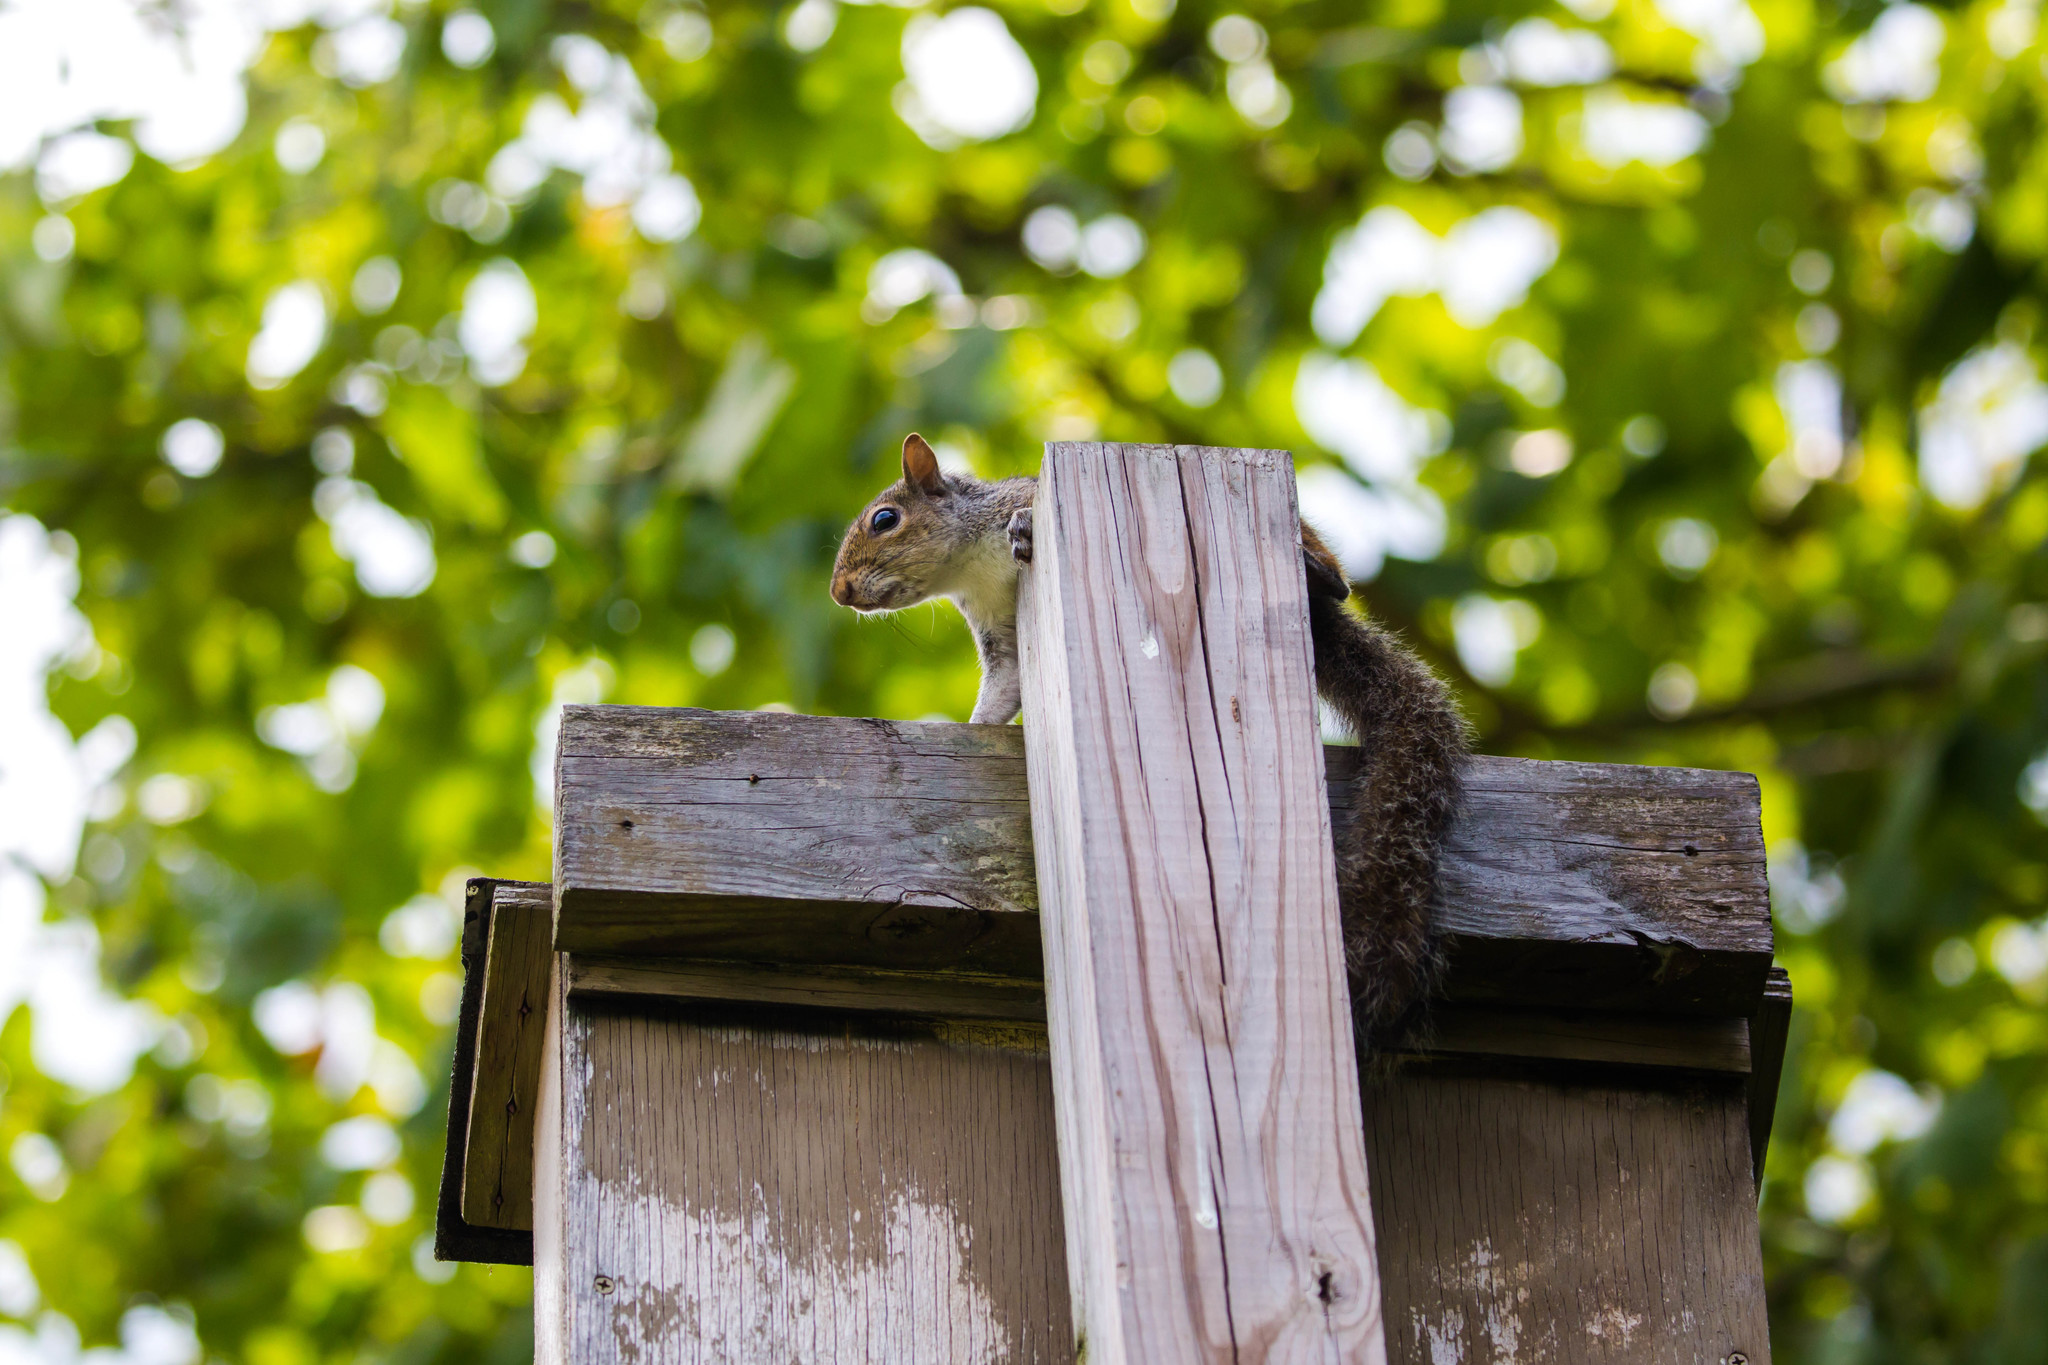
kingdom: Animalia
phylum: Chordata
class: Mammalia
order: Rodentia
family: Sciuridae
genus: Sciurus
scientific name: Sciurus carolinensis
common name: Eastern gray squirrel
